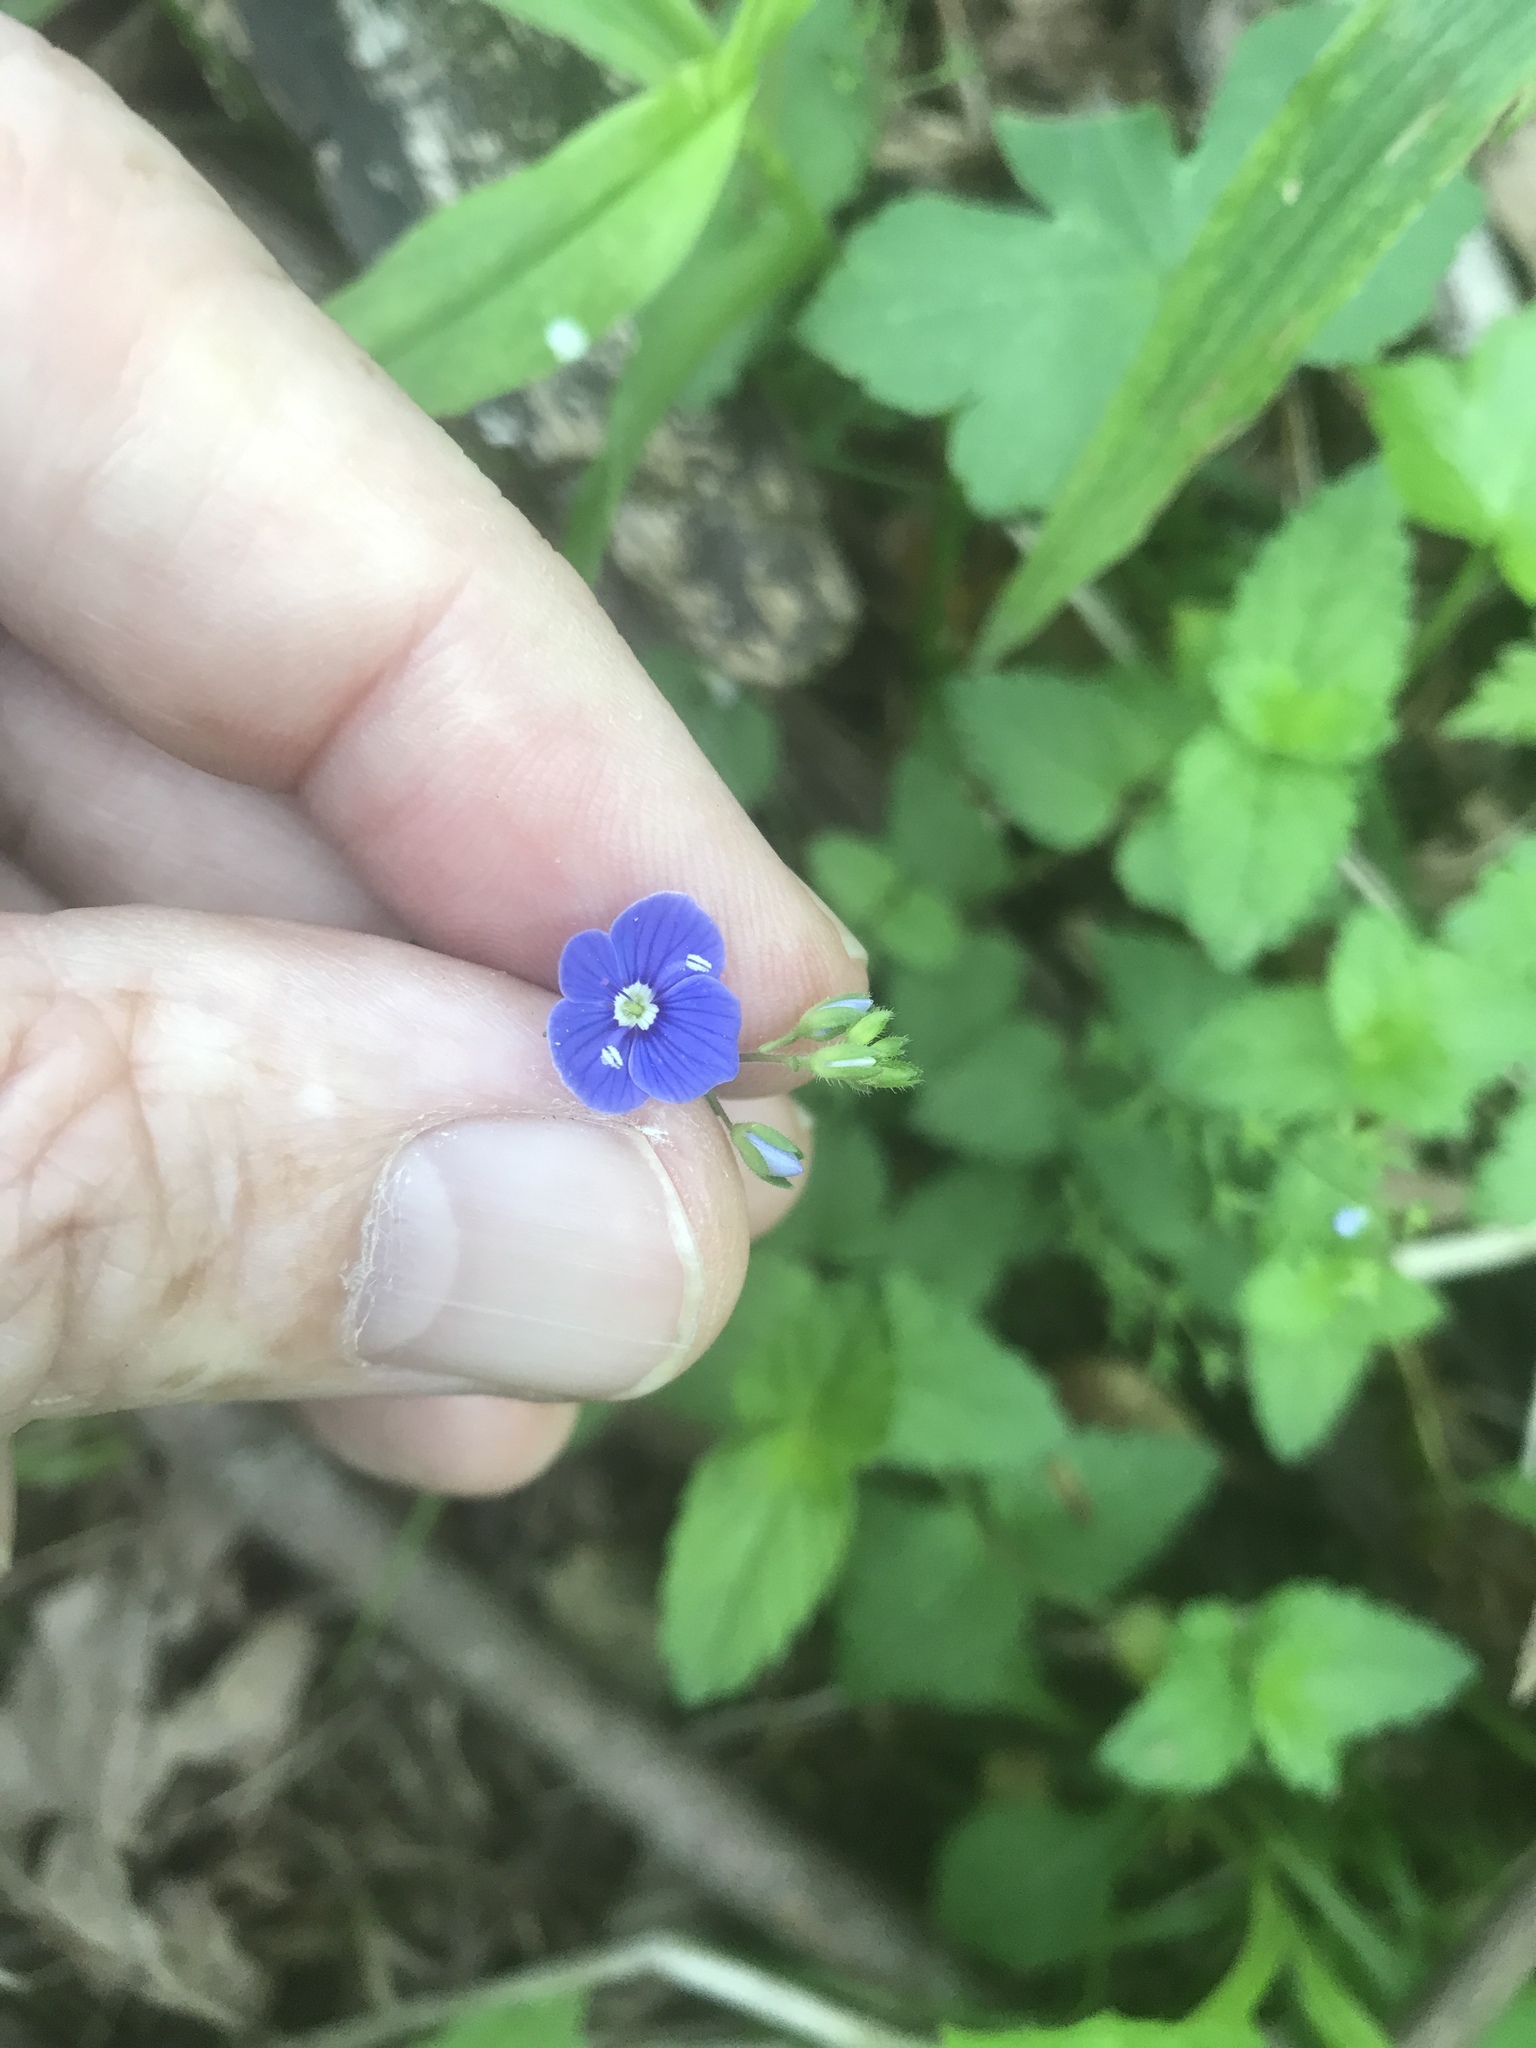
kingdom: Plantae
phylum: Tracheophyta
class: Magnoliopsida
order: Lamiales
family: Plantaginaceae
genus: Veronica
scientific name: Veronica chamaedrys
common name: Germander speedwell
